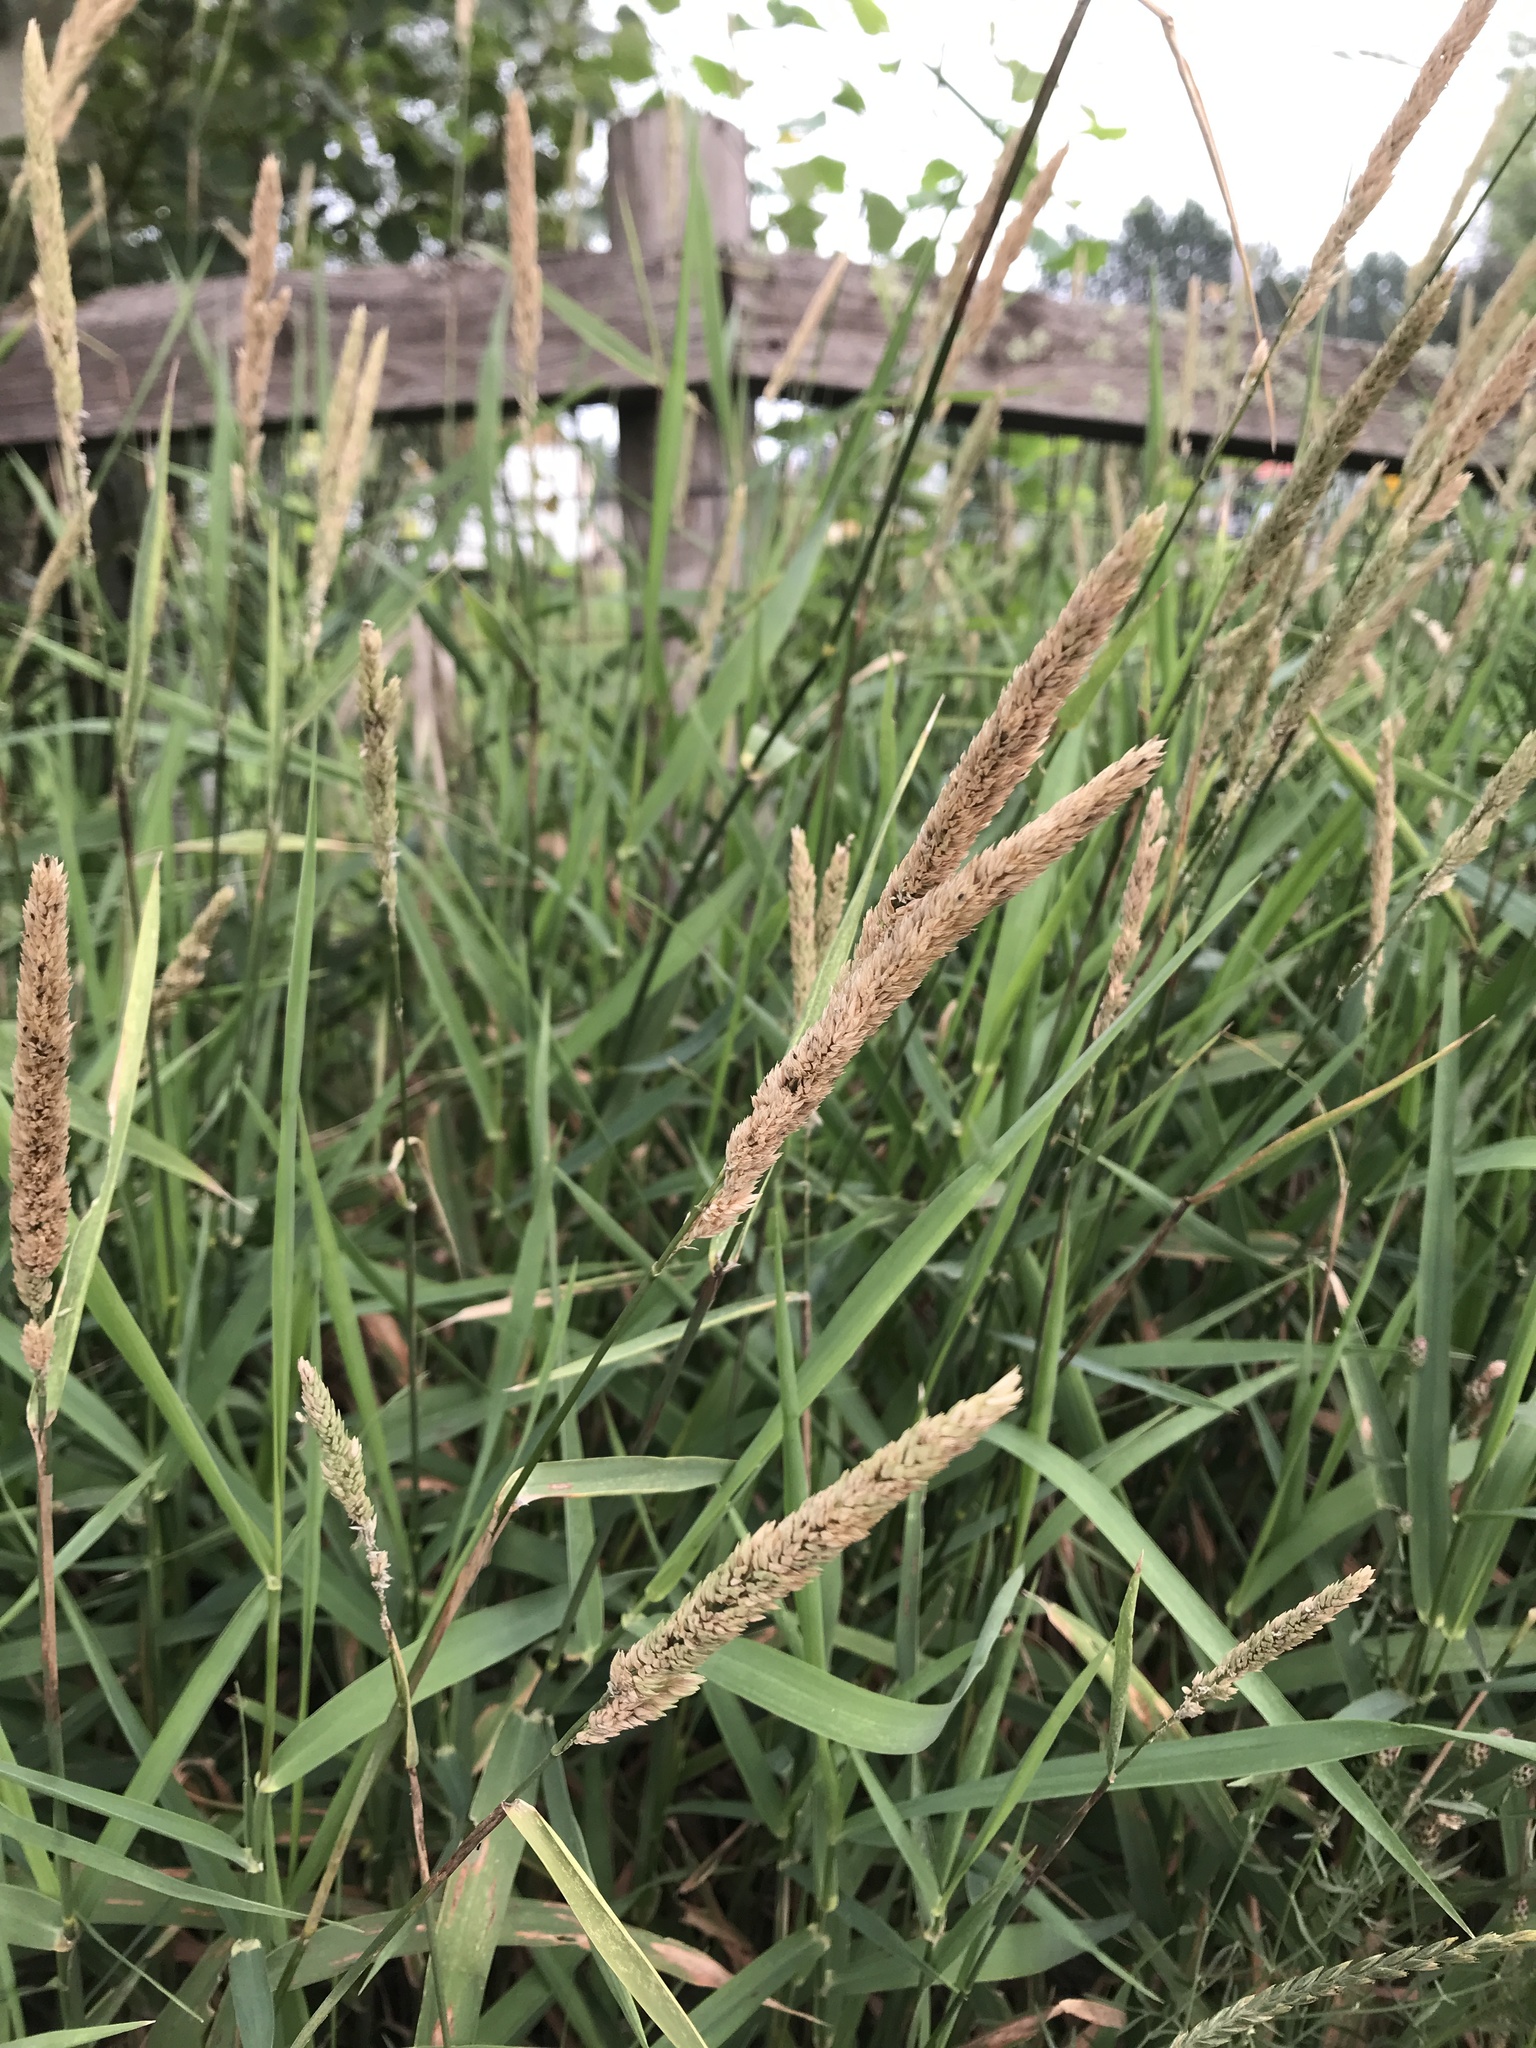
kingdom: Plantae
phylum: Tracheophyta
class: Liliopsida
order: Poales
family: Poaceae
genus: Phalaris
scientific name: Phalaris arundinacea
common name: Reed canary-grass
